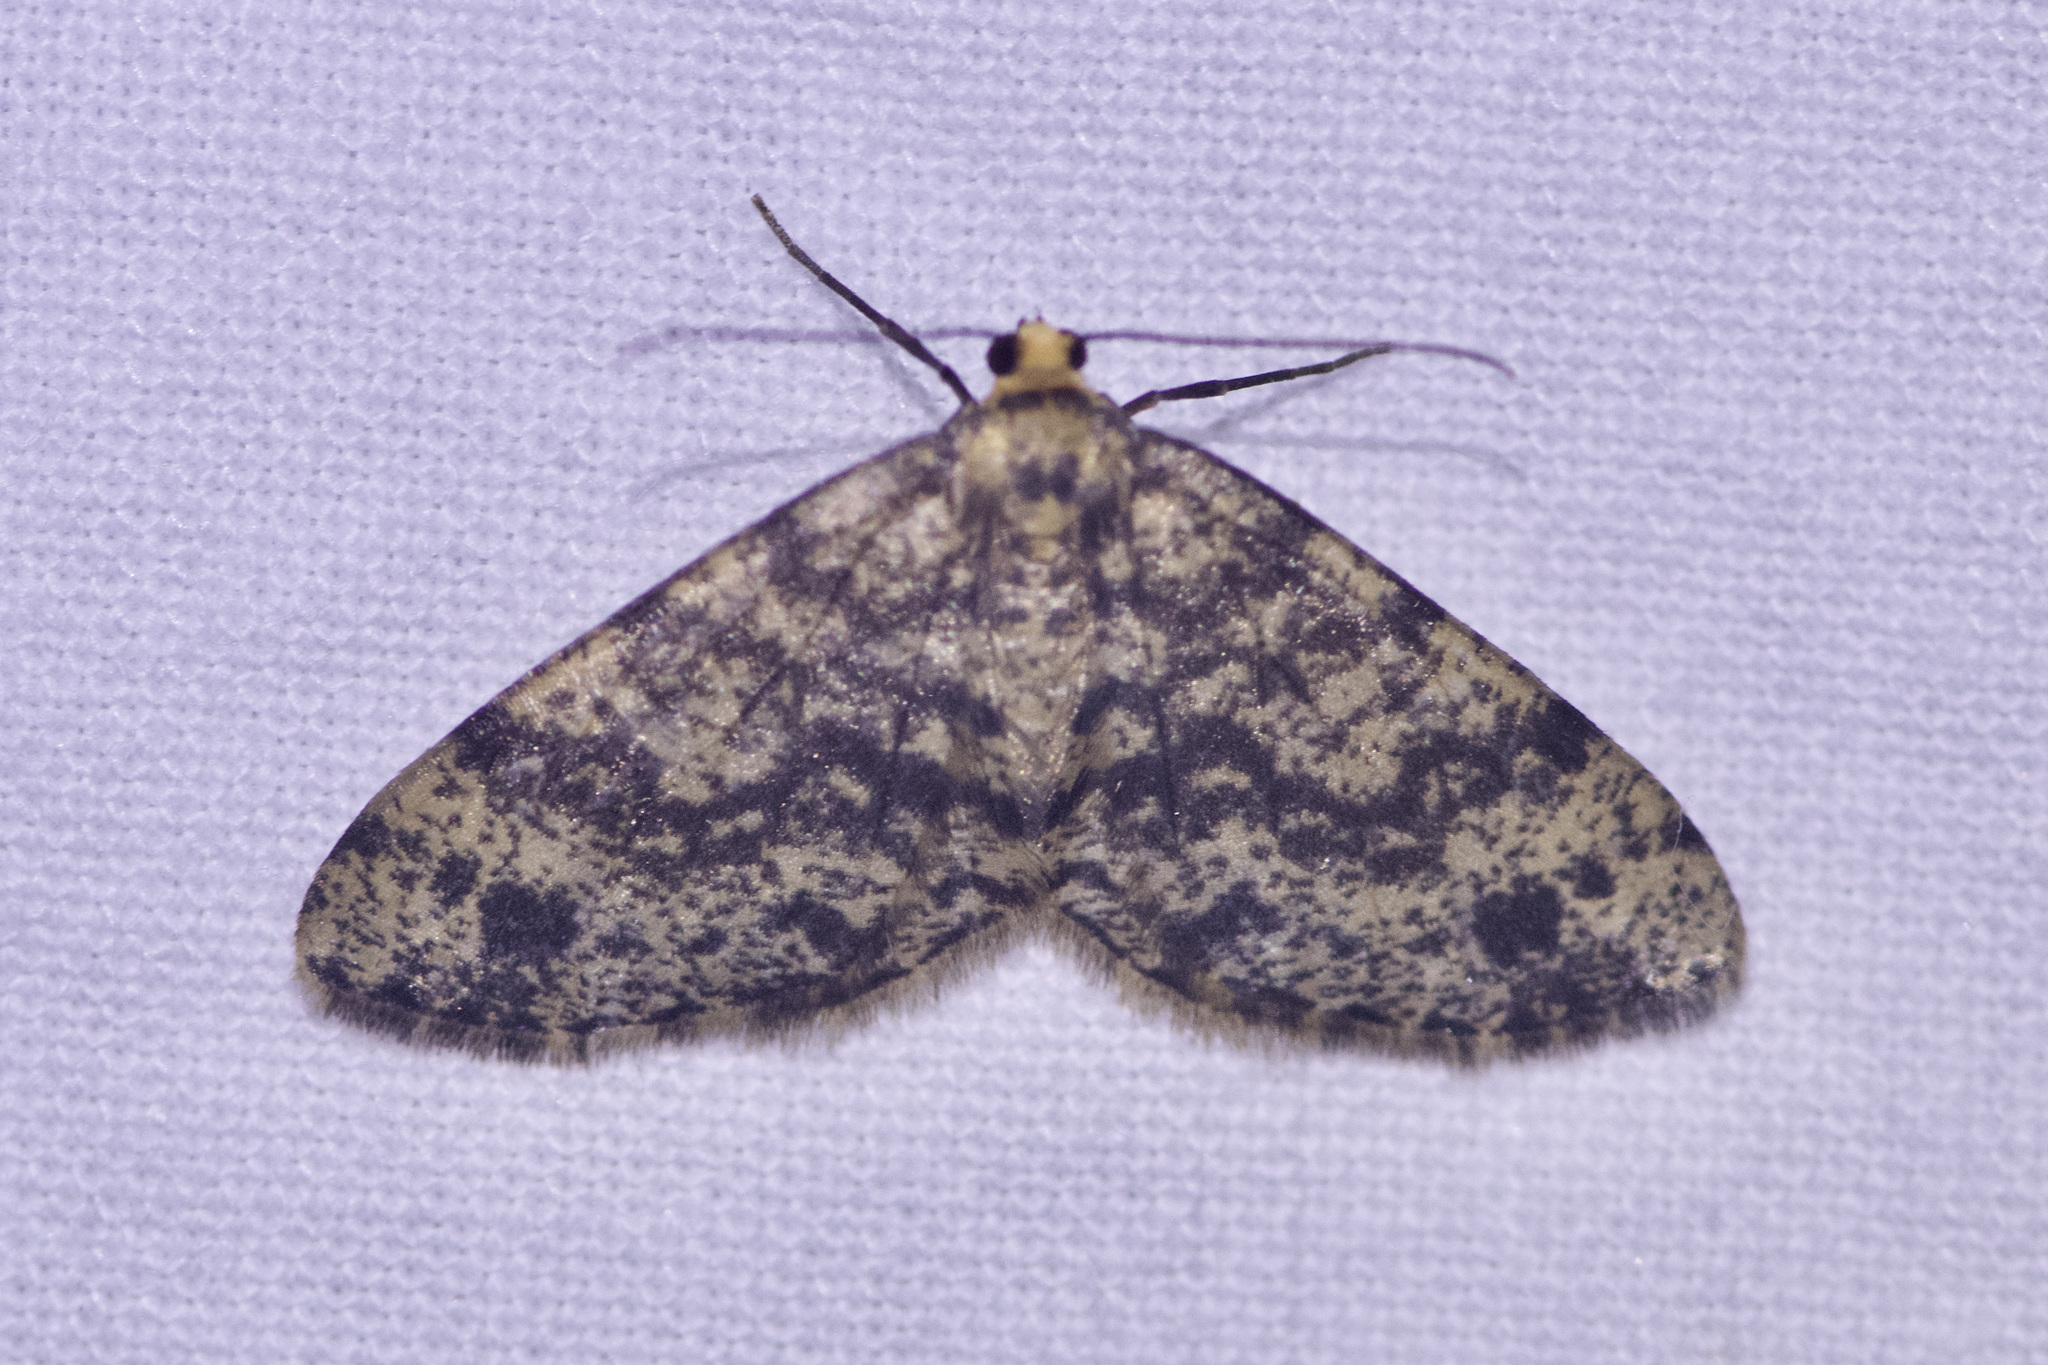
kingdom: Animalia
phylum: Arthropoda
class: Insecta
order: Lepidoptera
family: Geometridae
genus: Melanolophia
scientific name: Melanolophia parma
